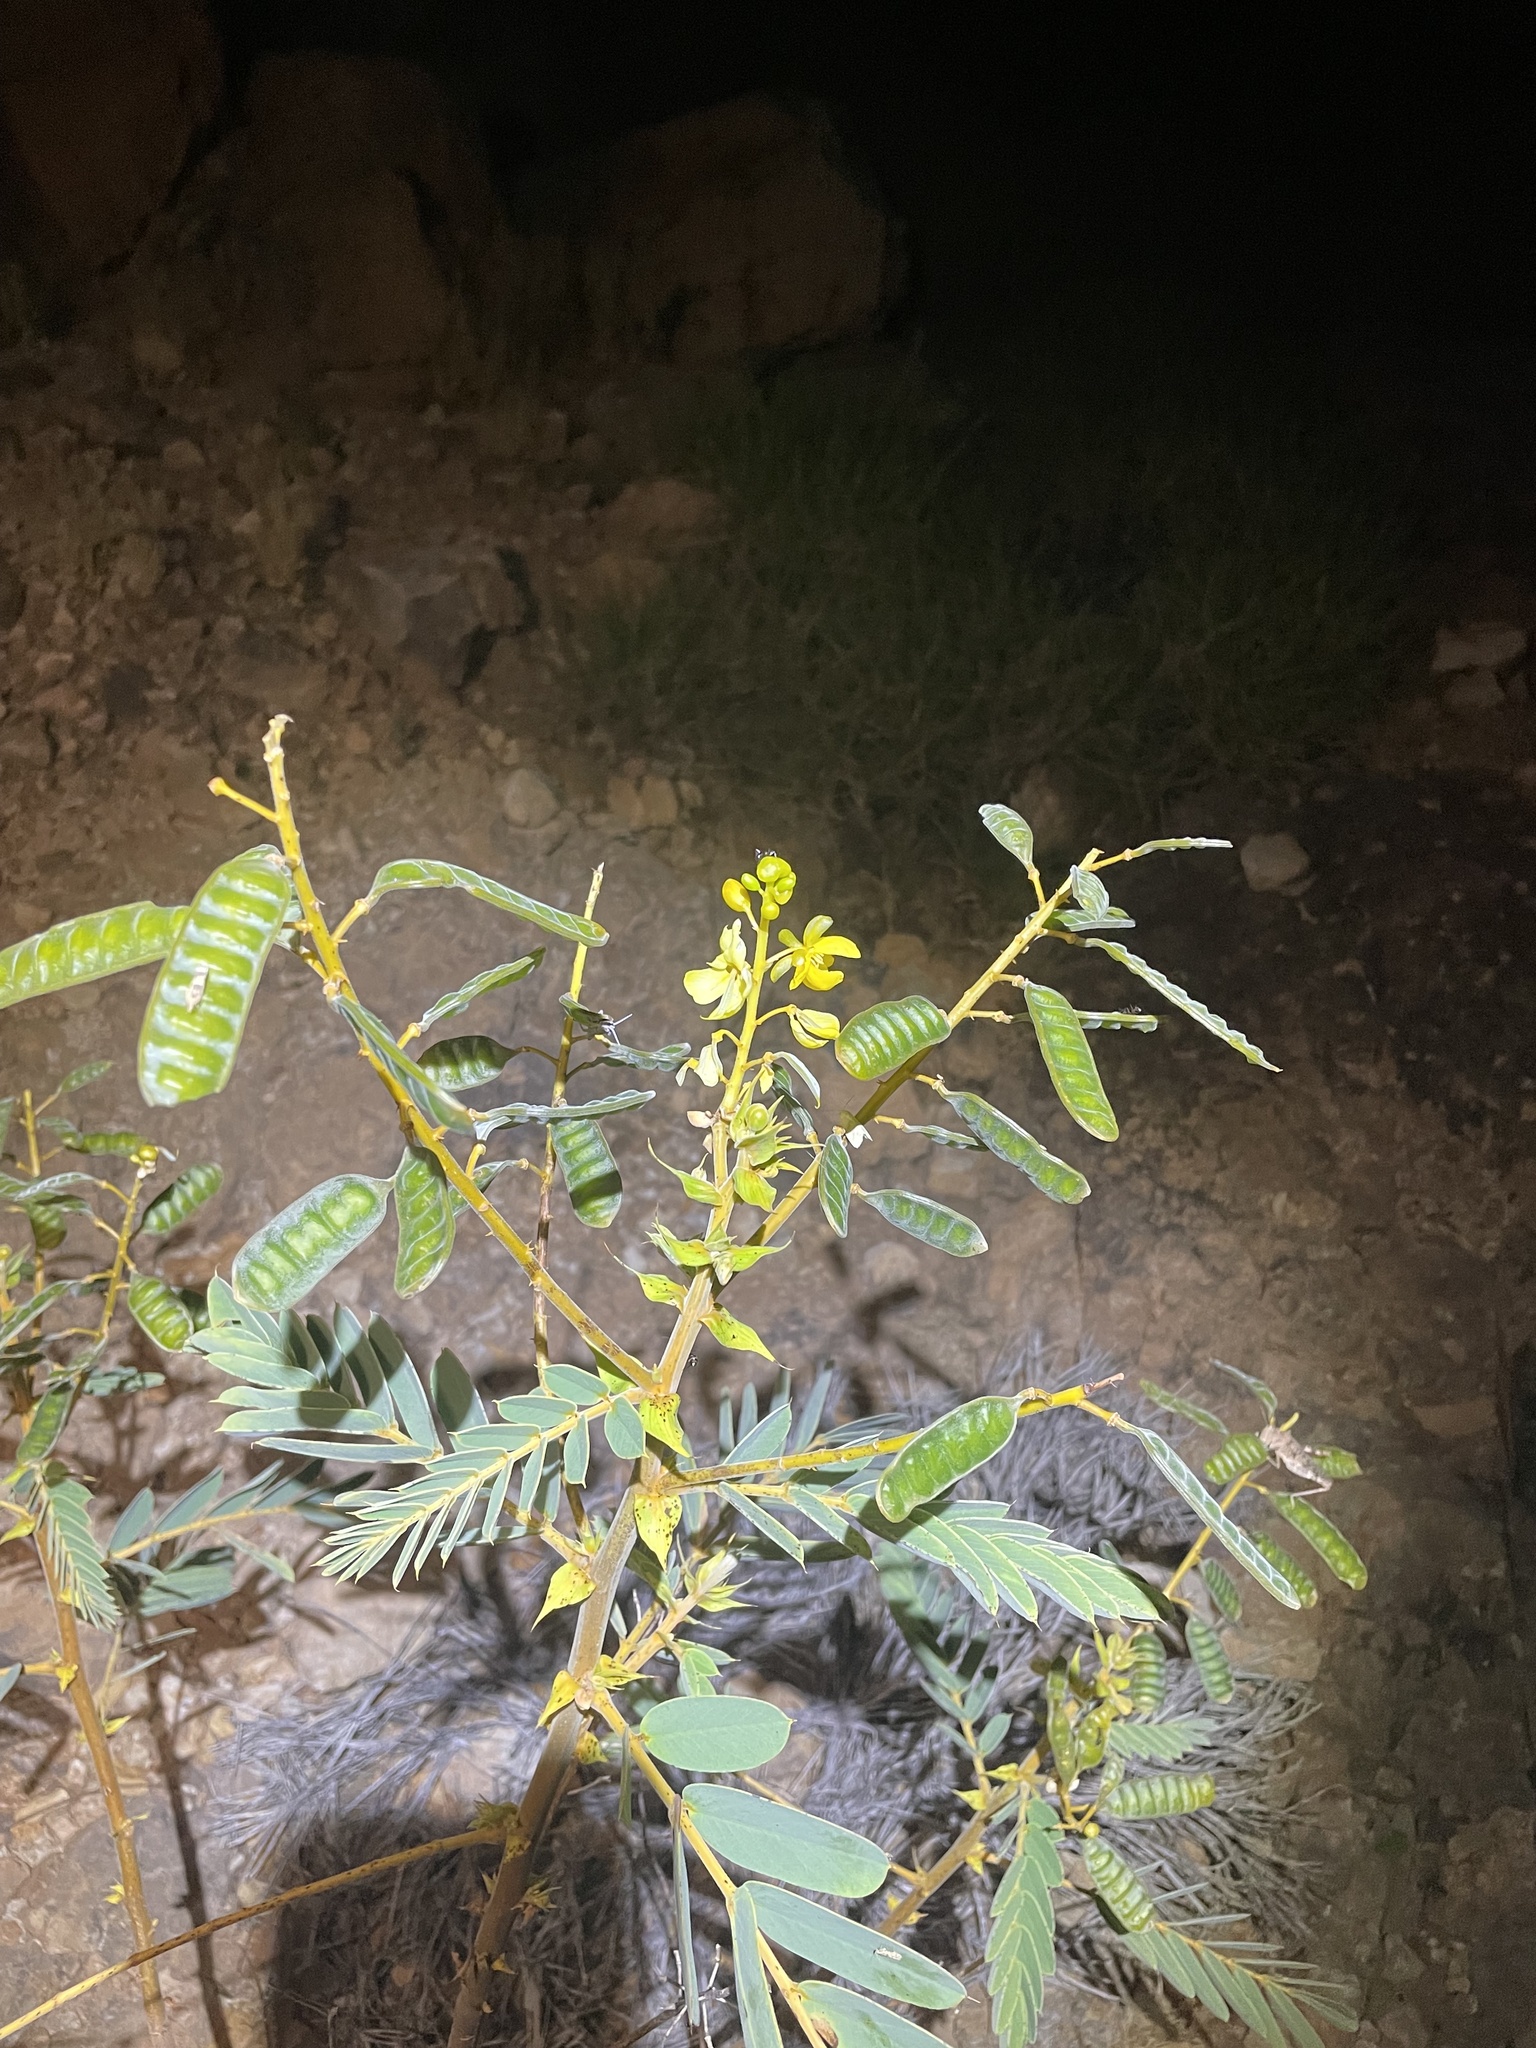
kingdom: Plantae
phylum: Tracheophyta
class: Magnoliopsida
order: Fabales
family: Fabaceae
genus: Senna
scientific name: Senna notabilis
